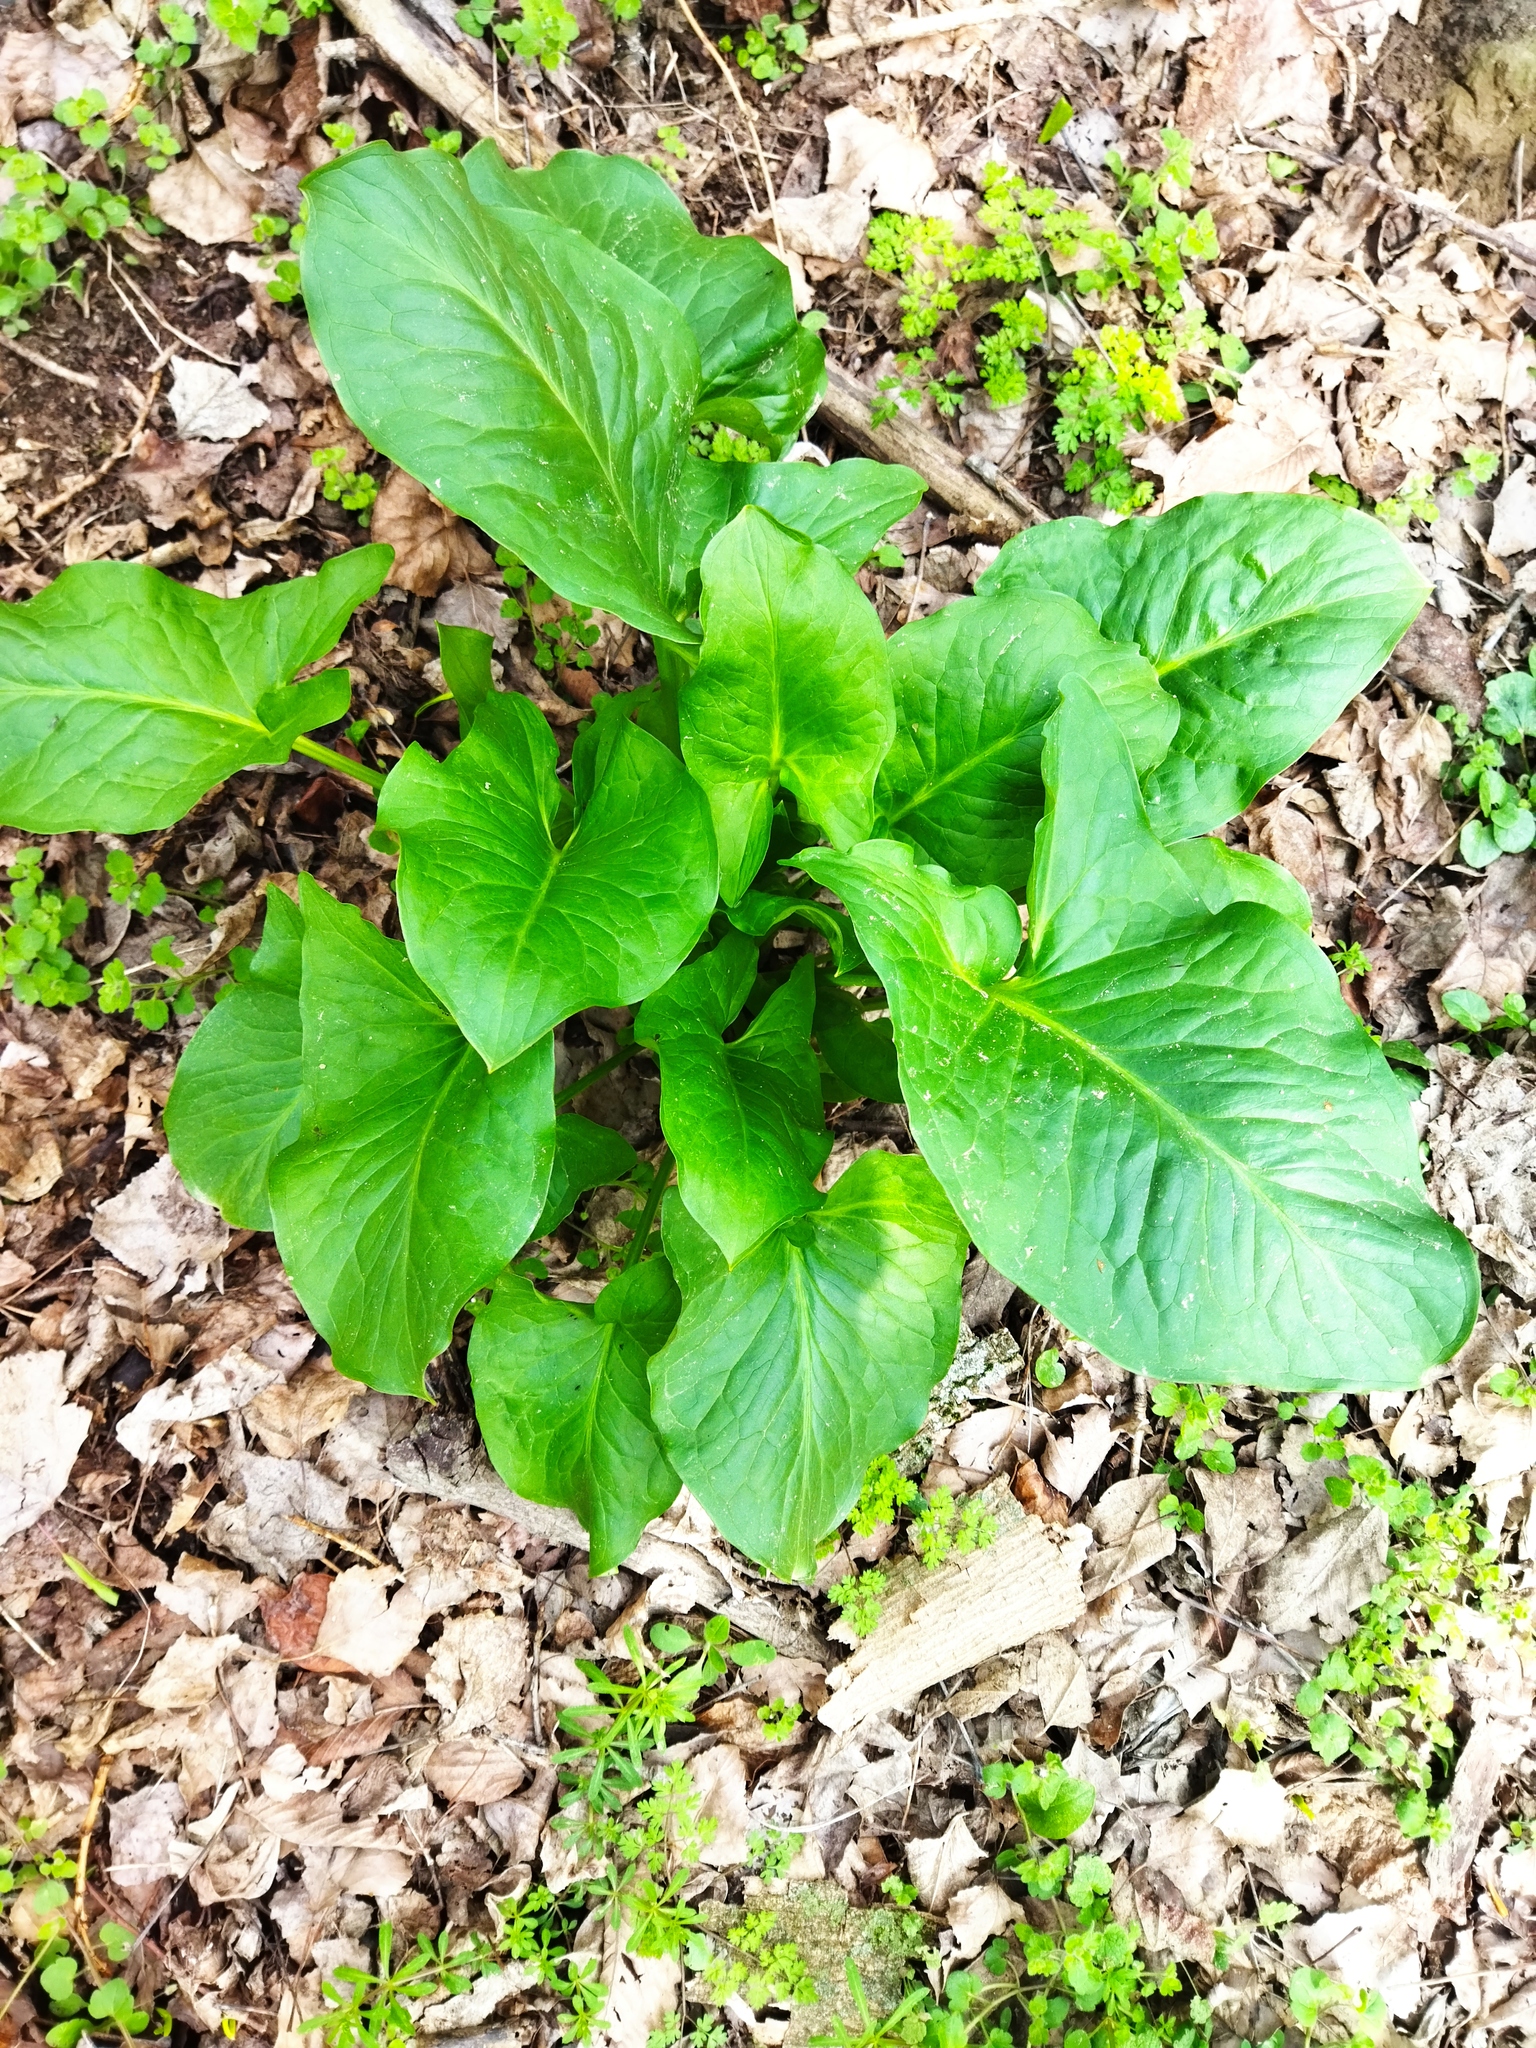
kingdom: Plantae
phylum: Tracheophyta
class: Liliopsida
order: Alismatales
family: Araceae
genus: Arum
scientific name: Arum maculatum
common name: Lords-and-ladies
